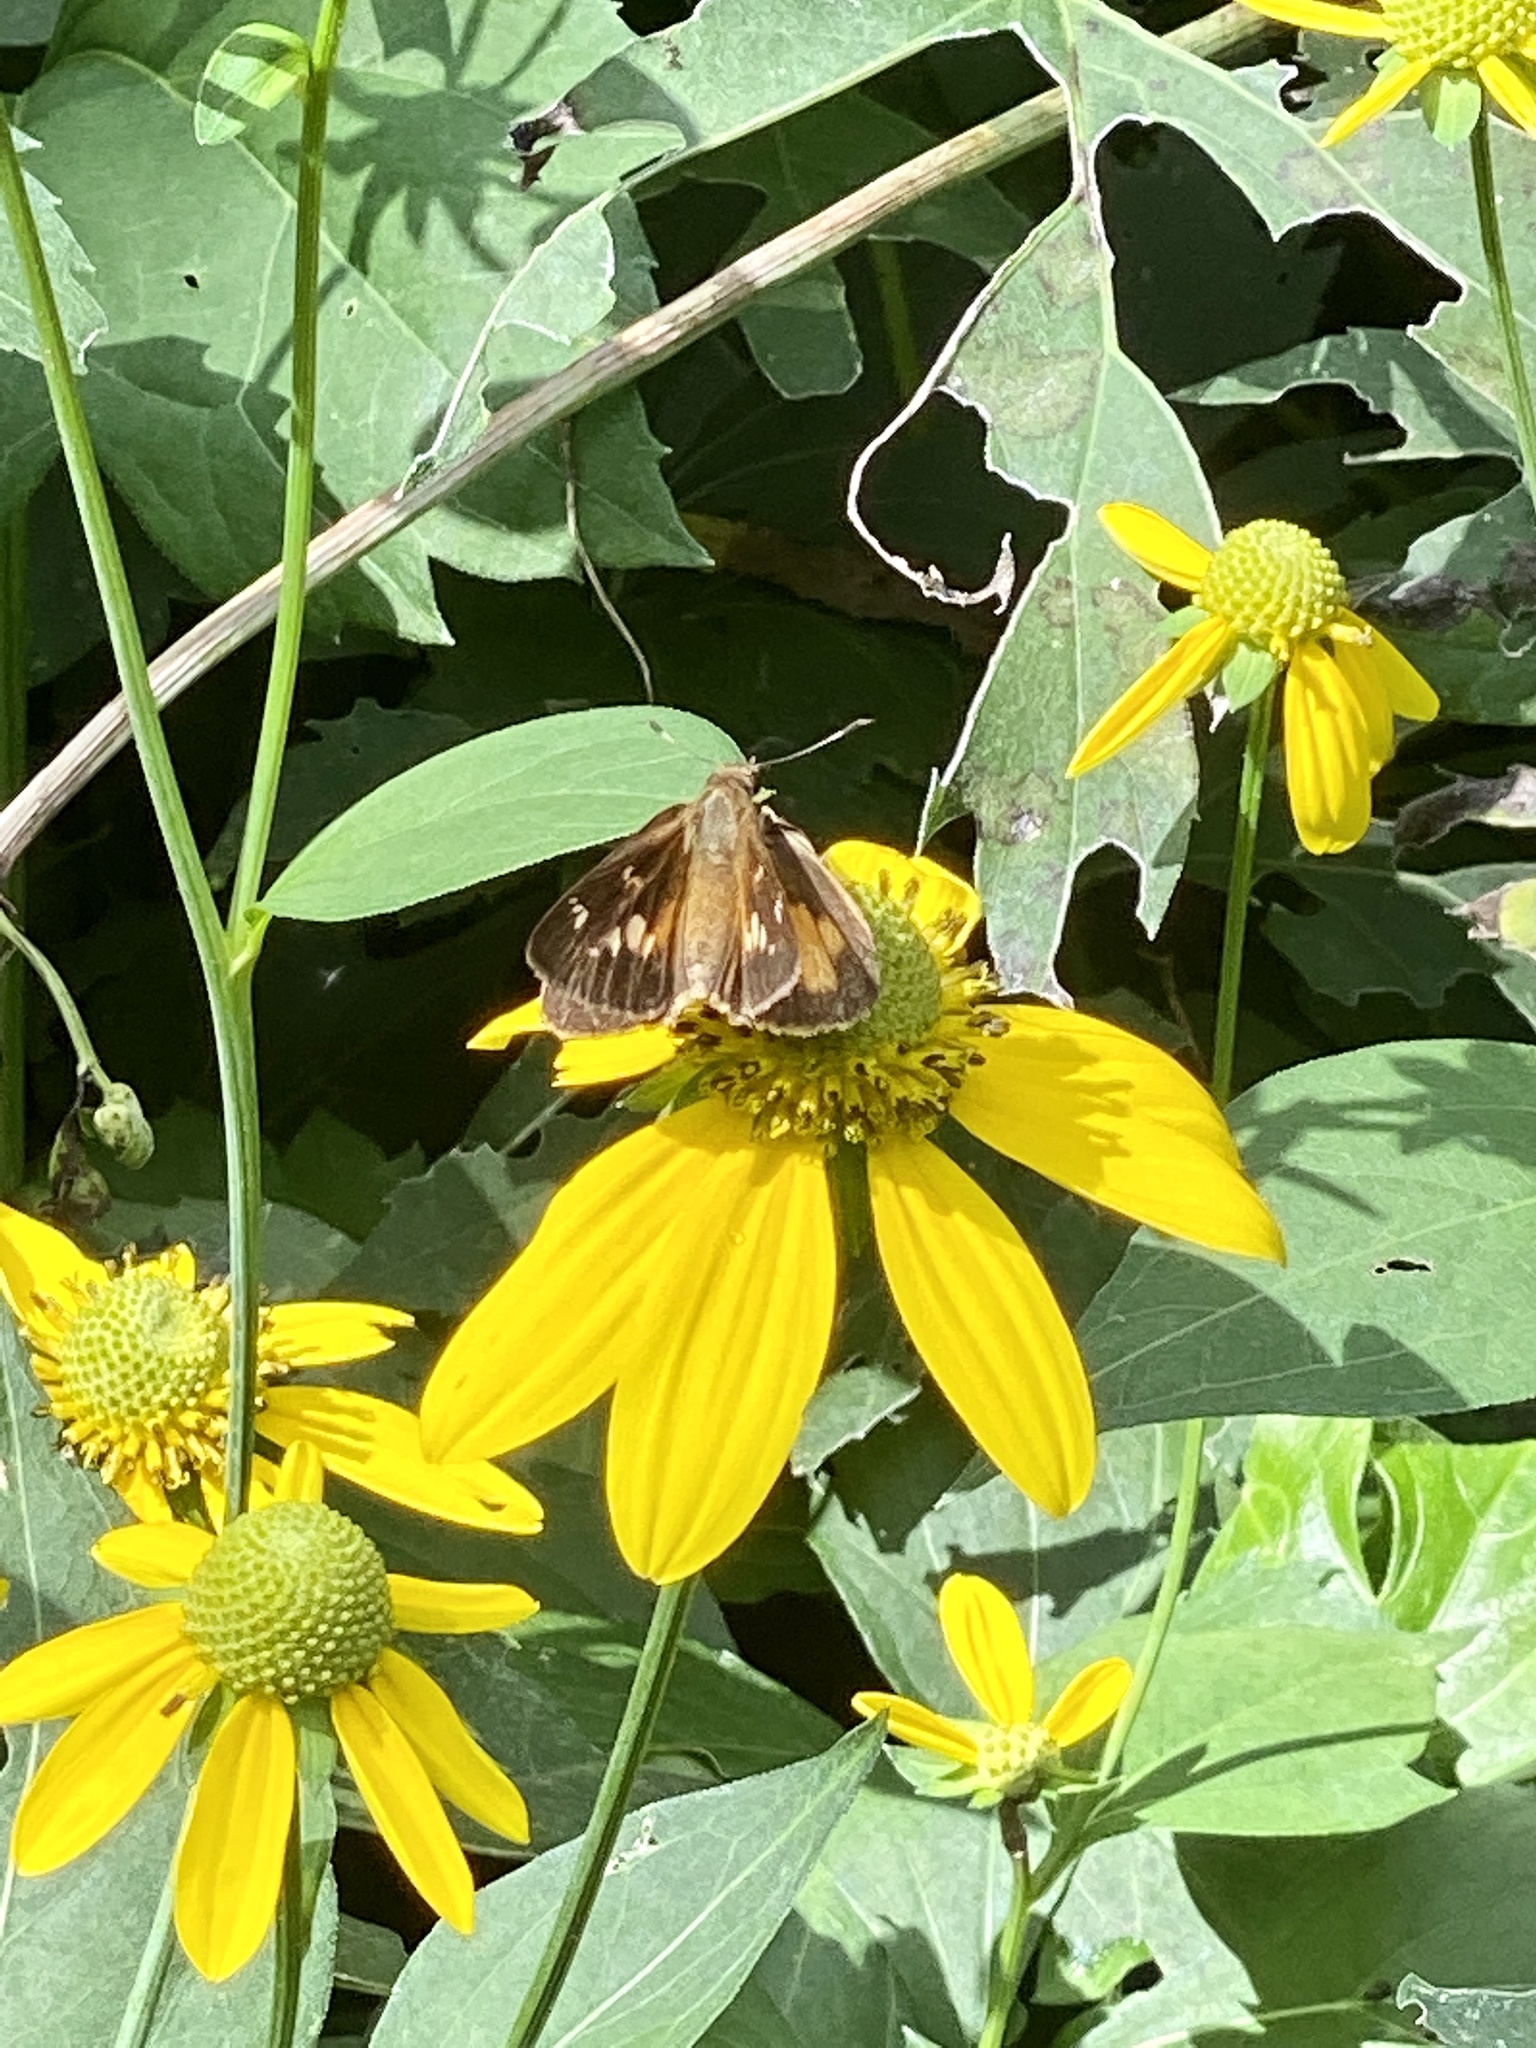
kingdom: Animalia
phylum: Arthropoda
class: Insecta
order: Lepidoptera
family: Hesperiidae
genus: Poanes
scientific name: Poanes viator
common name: Broad-winged skipper
